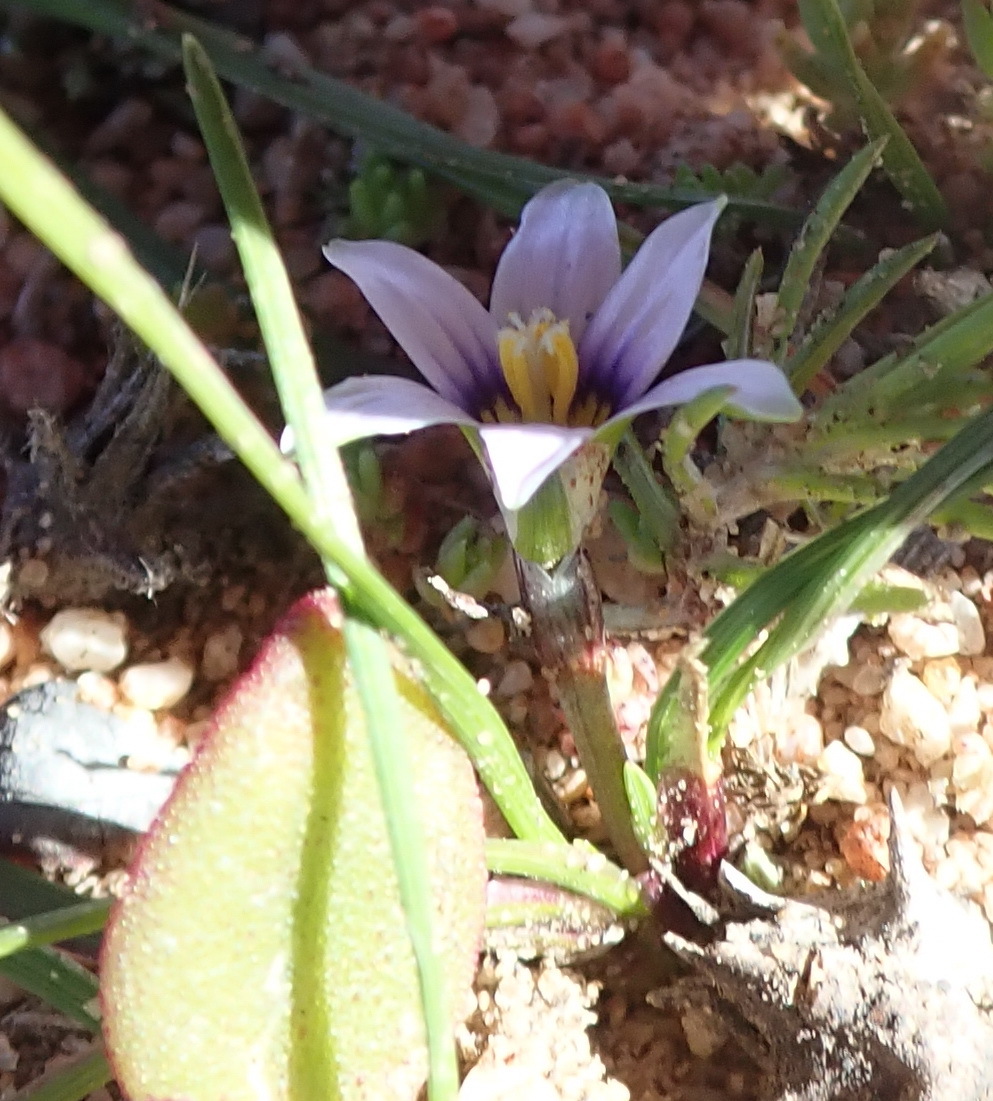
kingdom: Plantae
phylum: Tracheophyta
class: Liliopsida
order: Asparagales
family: Iridaceae
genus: Romulea
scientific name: Romulea minutiflora
